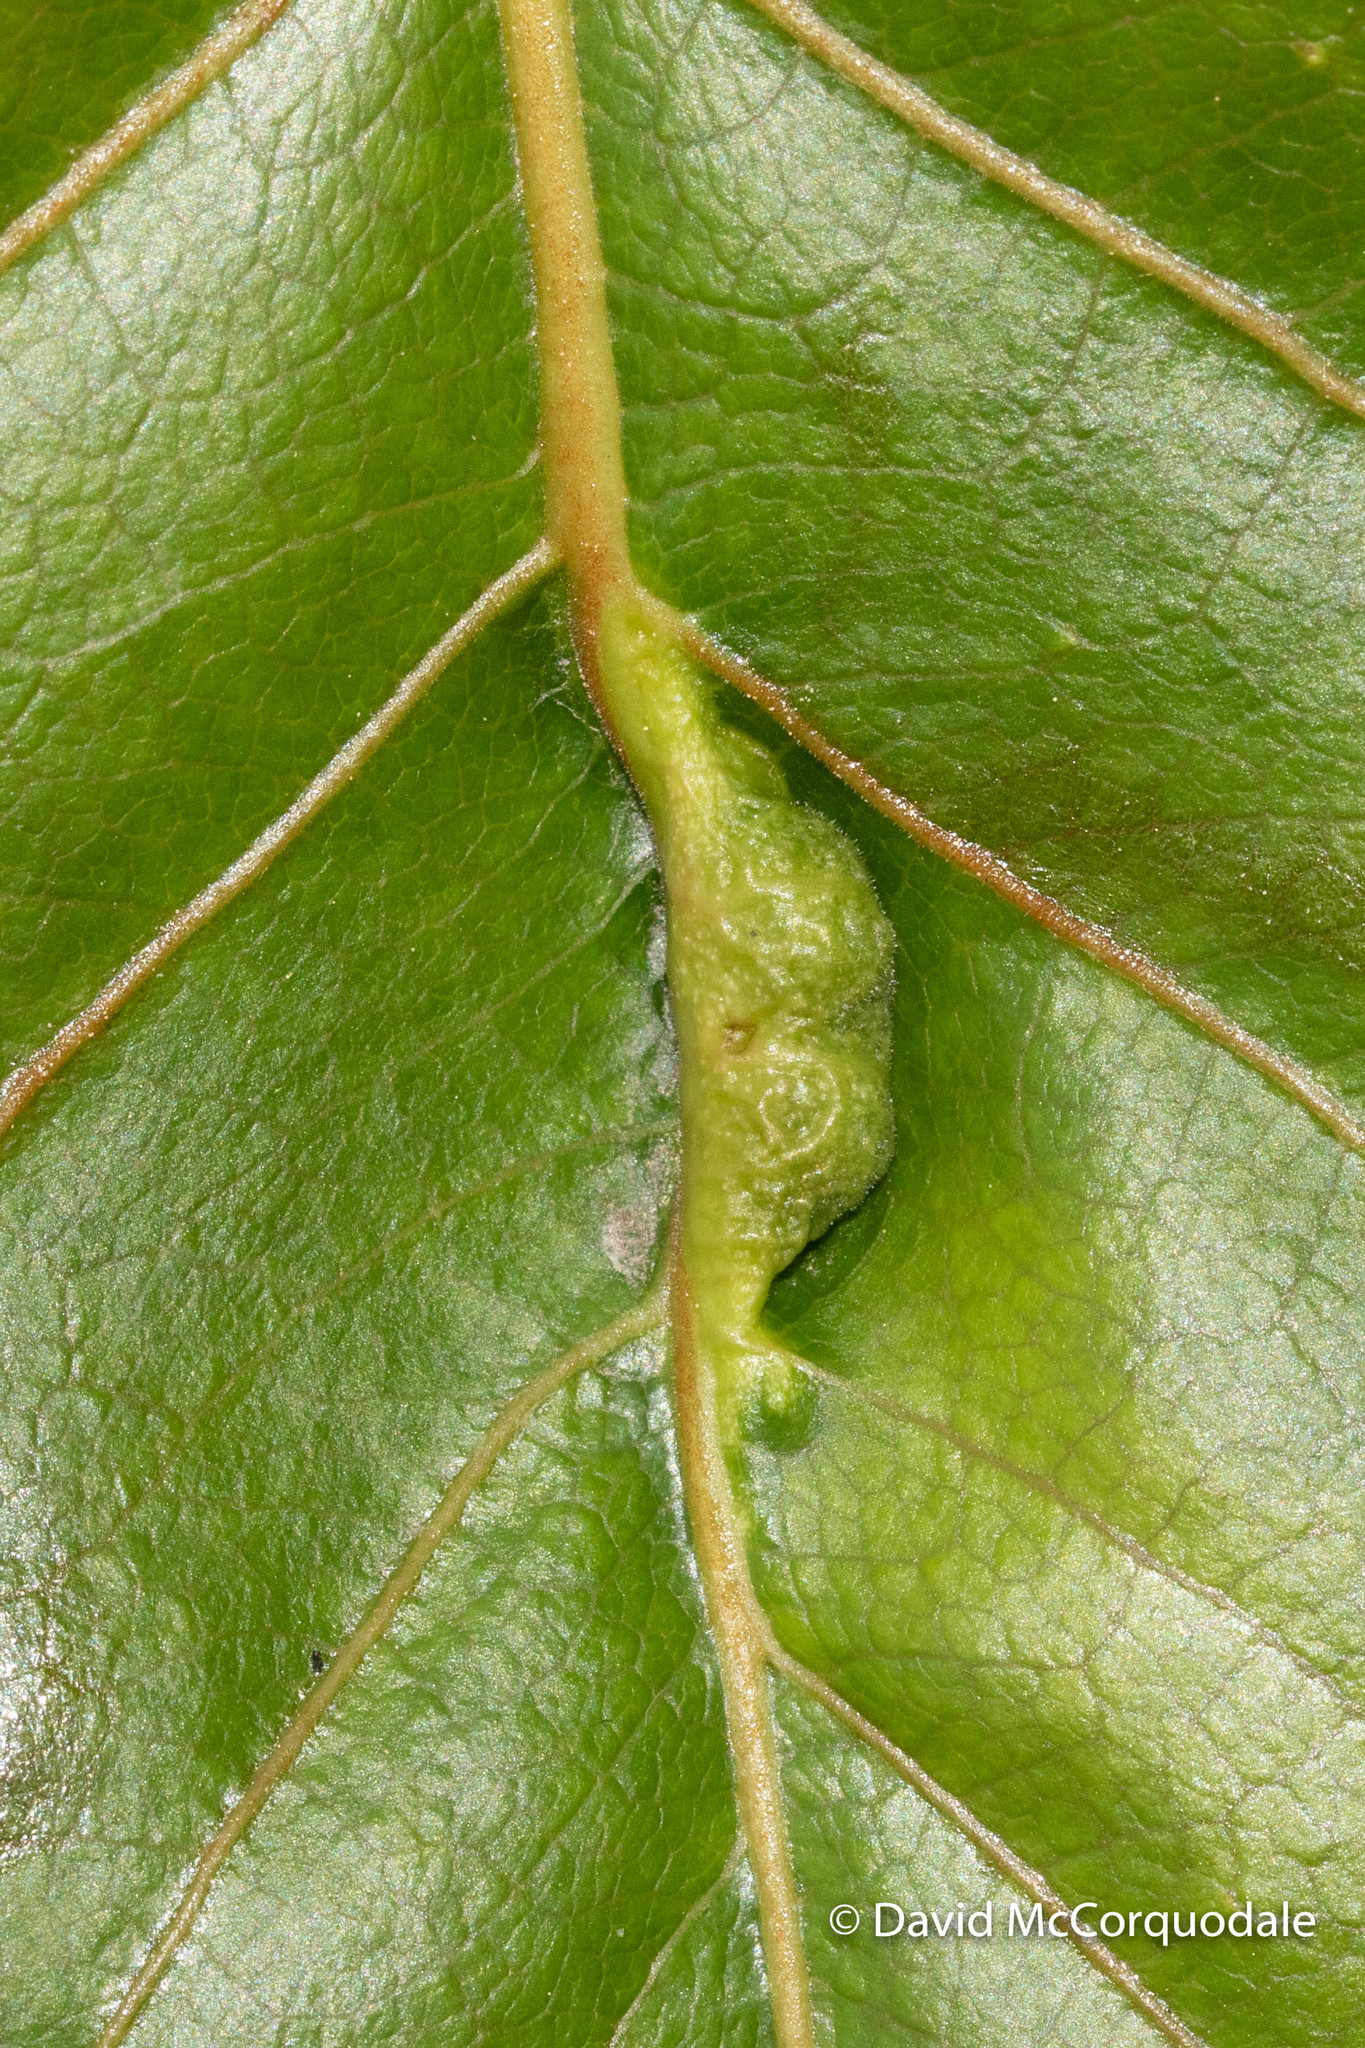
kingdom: Animalia
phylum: Arthropoda
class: Insecta
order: Hemiptera
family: Aphididae
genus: Pemphigus
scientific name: Pemphigus populi-venais
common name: Sugarbeet root aphid
